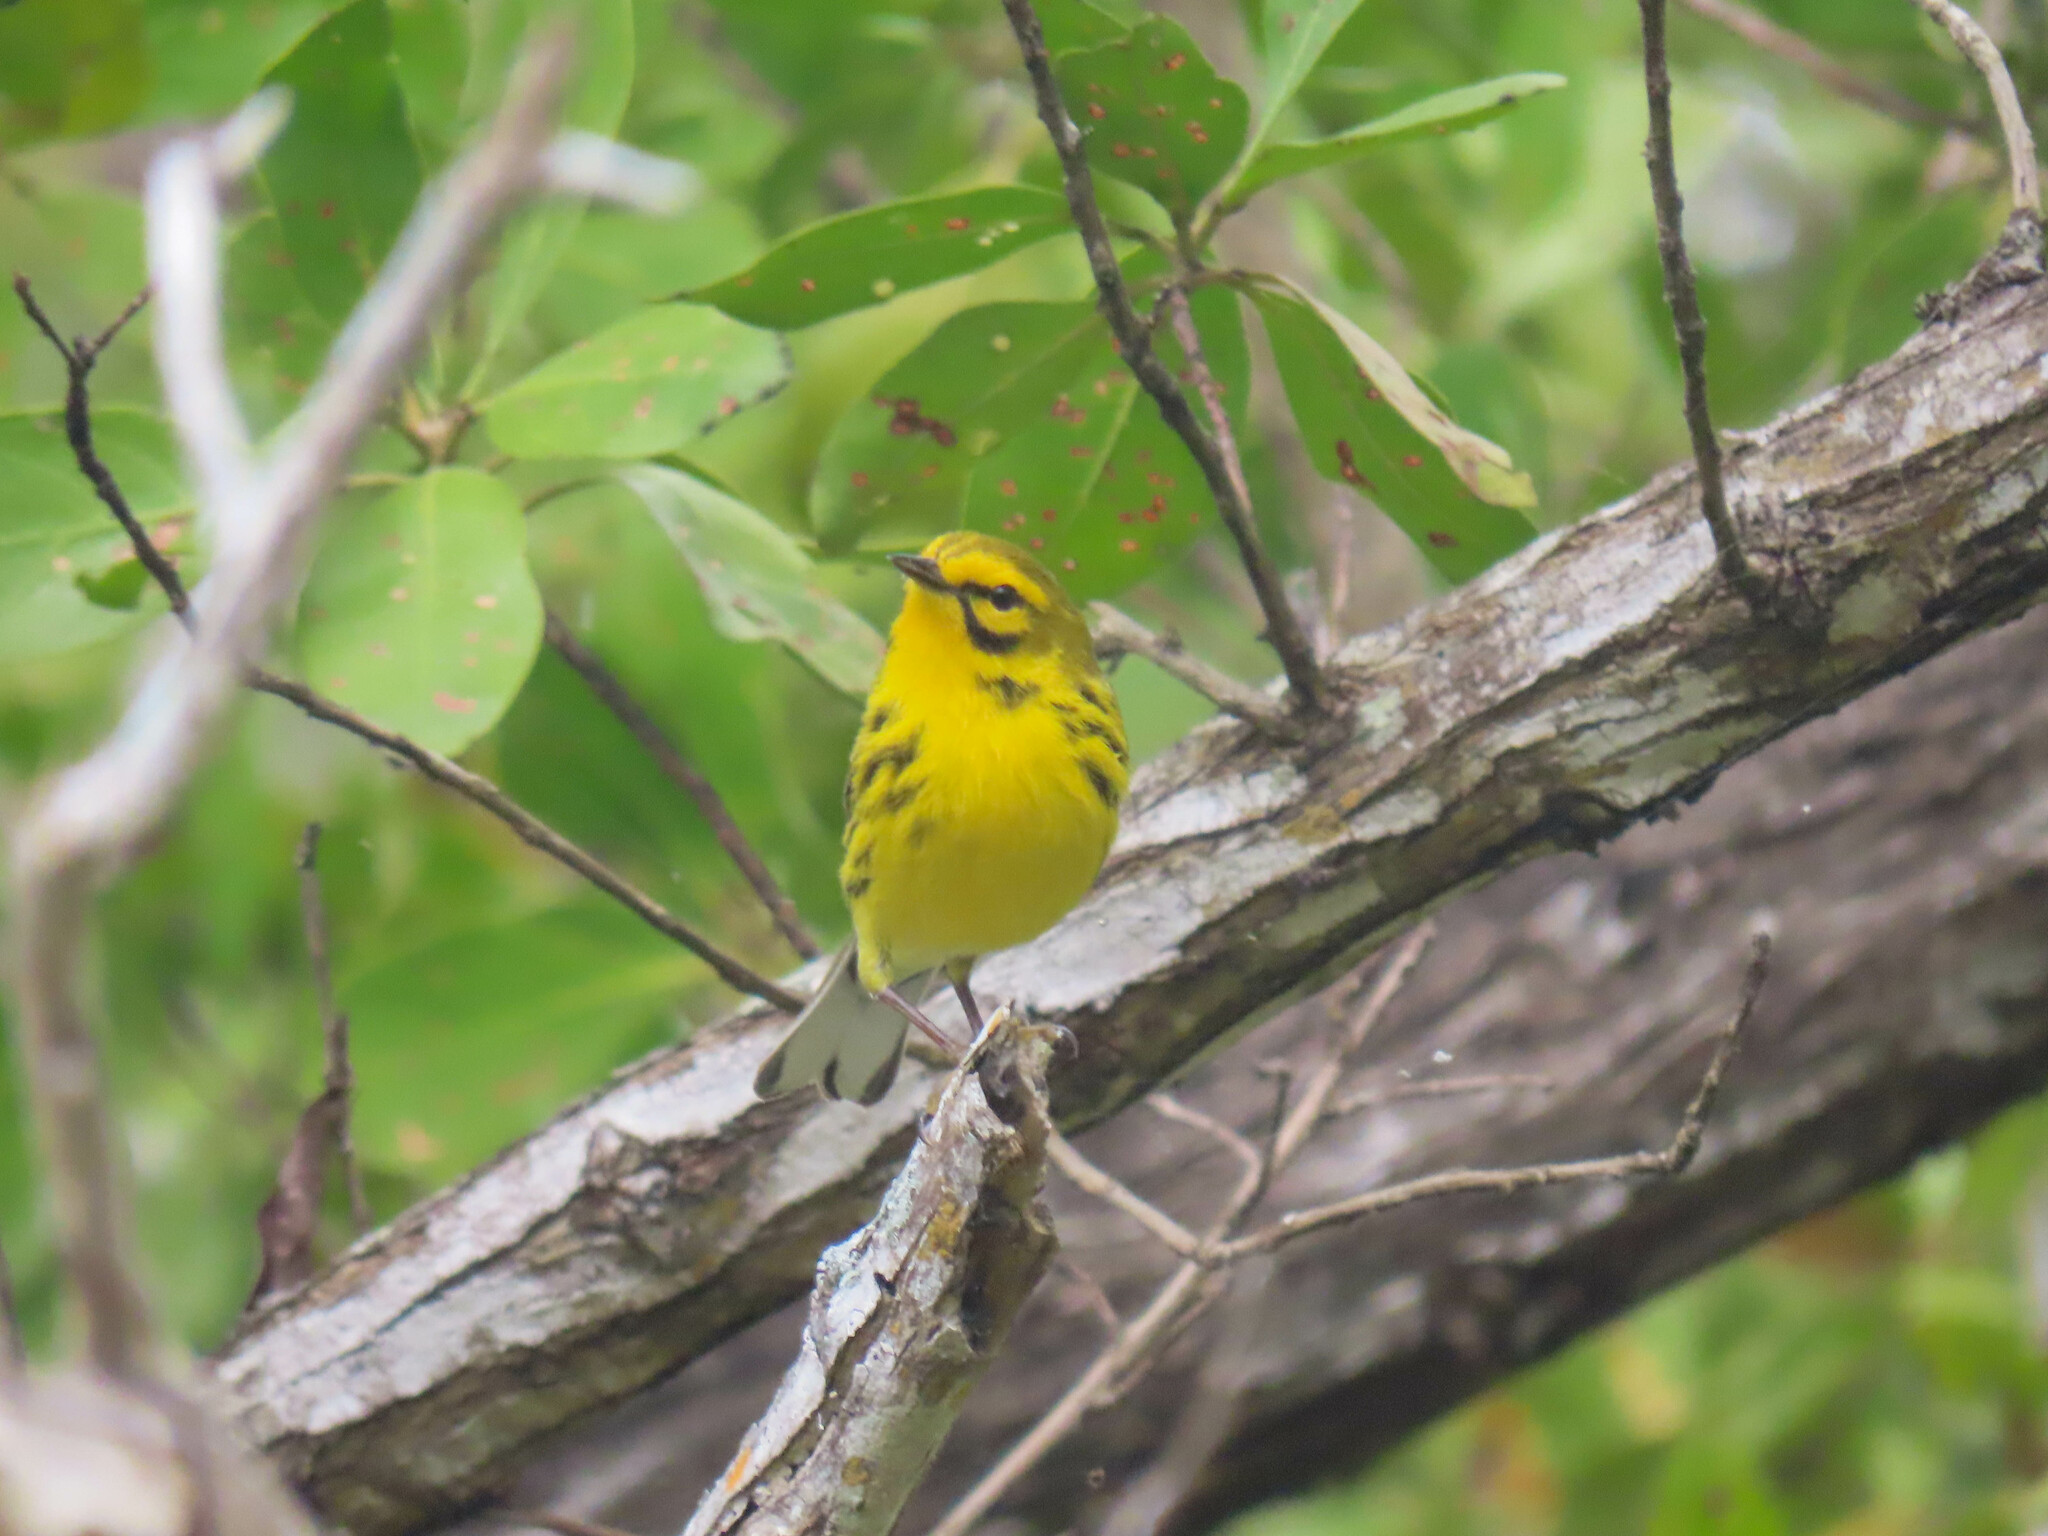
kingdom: Animalia
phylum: Chordata
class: Aves
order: Passeriformes
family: Parulidae
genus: Setophaga
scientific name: Setophaga discolor
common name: Prairie warbler
